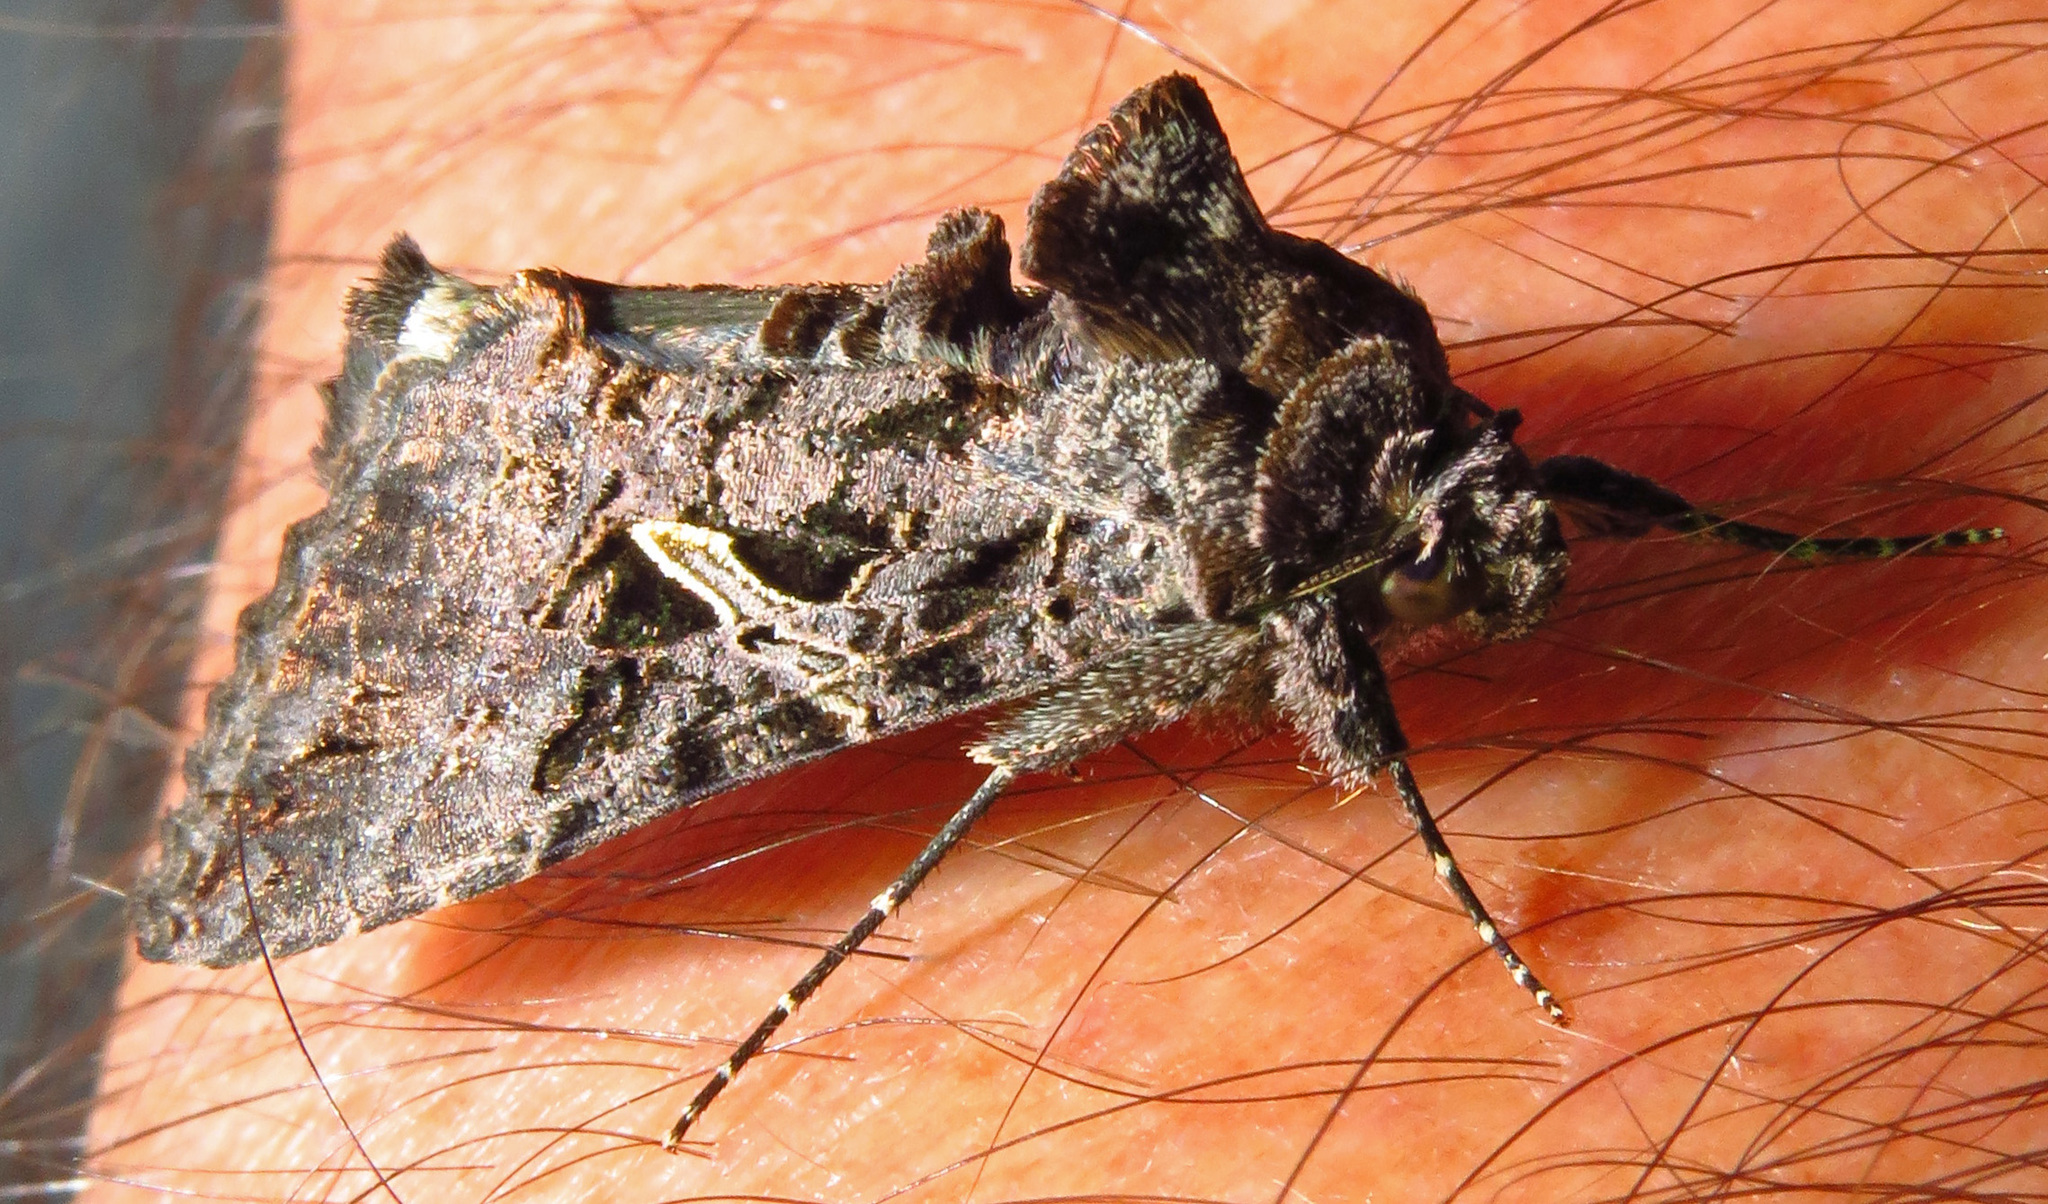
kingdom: Animalia
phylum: Arthropoda
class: Insecta
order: Lepidoptera
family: Noctuidae
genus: Ctenoplusia
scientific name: Ctenoplusia oxygramma
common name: Sharp-stigma looper moth
